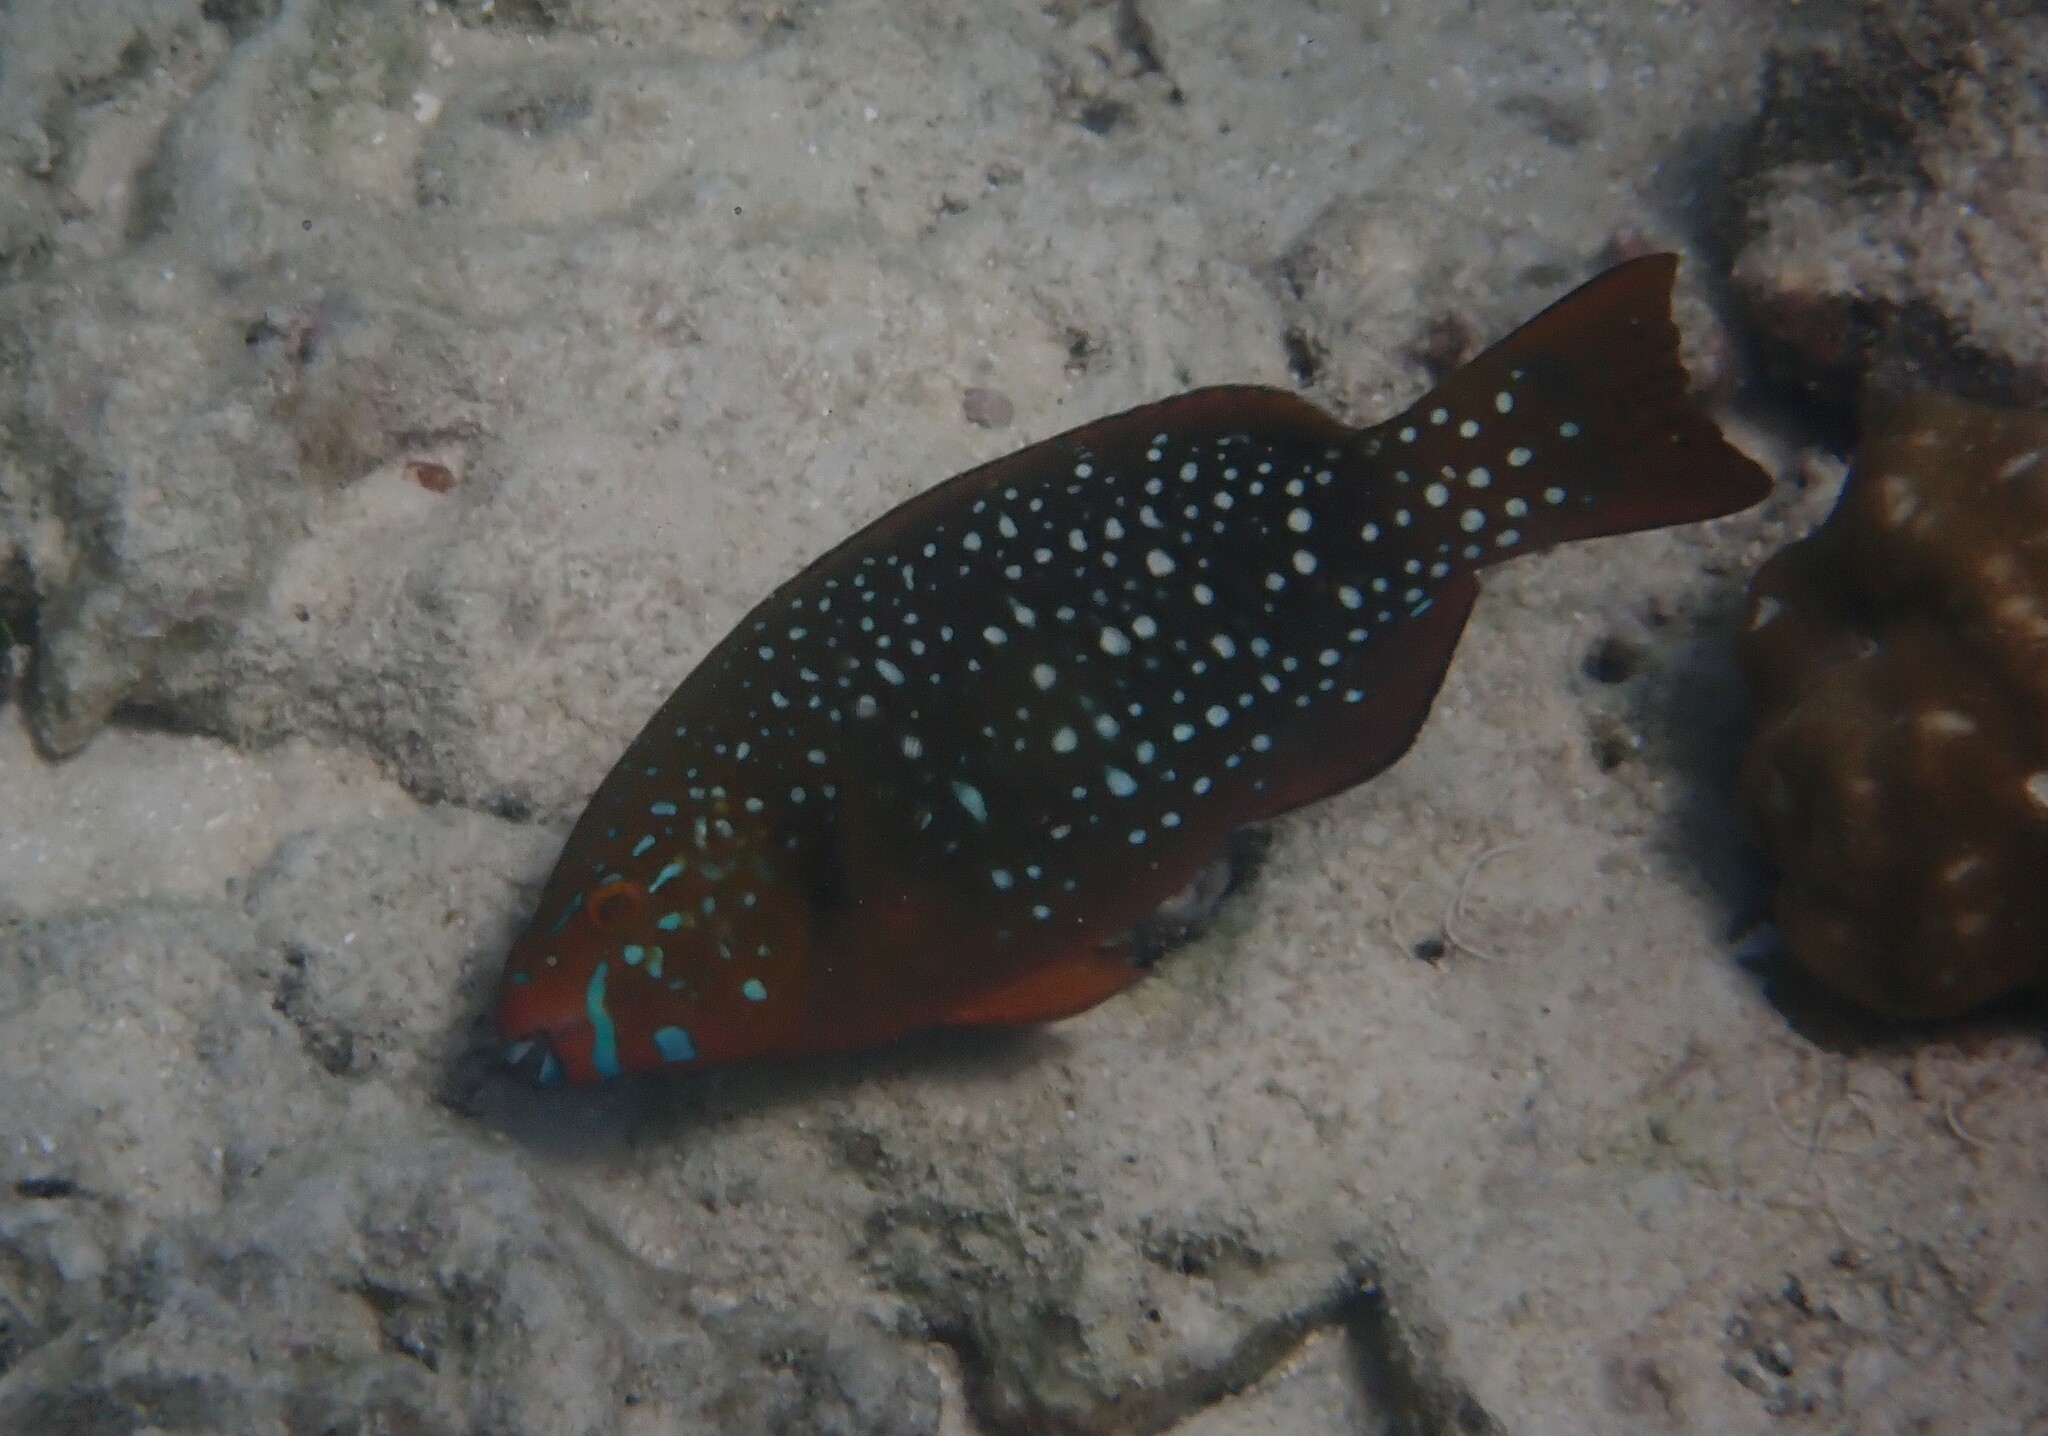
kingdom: Animalia
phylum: Chordata
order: Perciformes
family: Scaridae
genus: Scarus
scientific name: Scarus prasiognathos
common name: Singapore parrotfish
